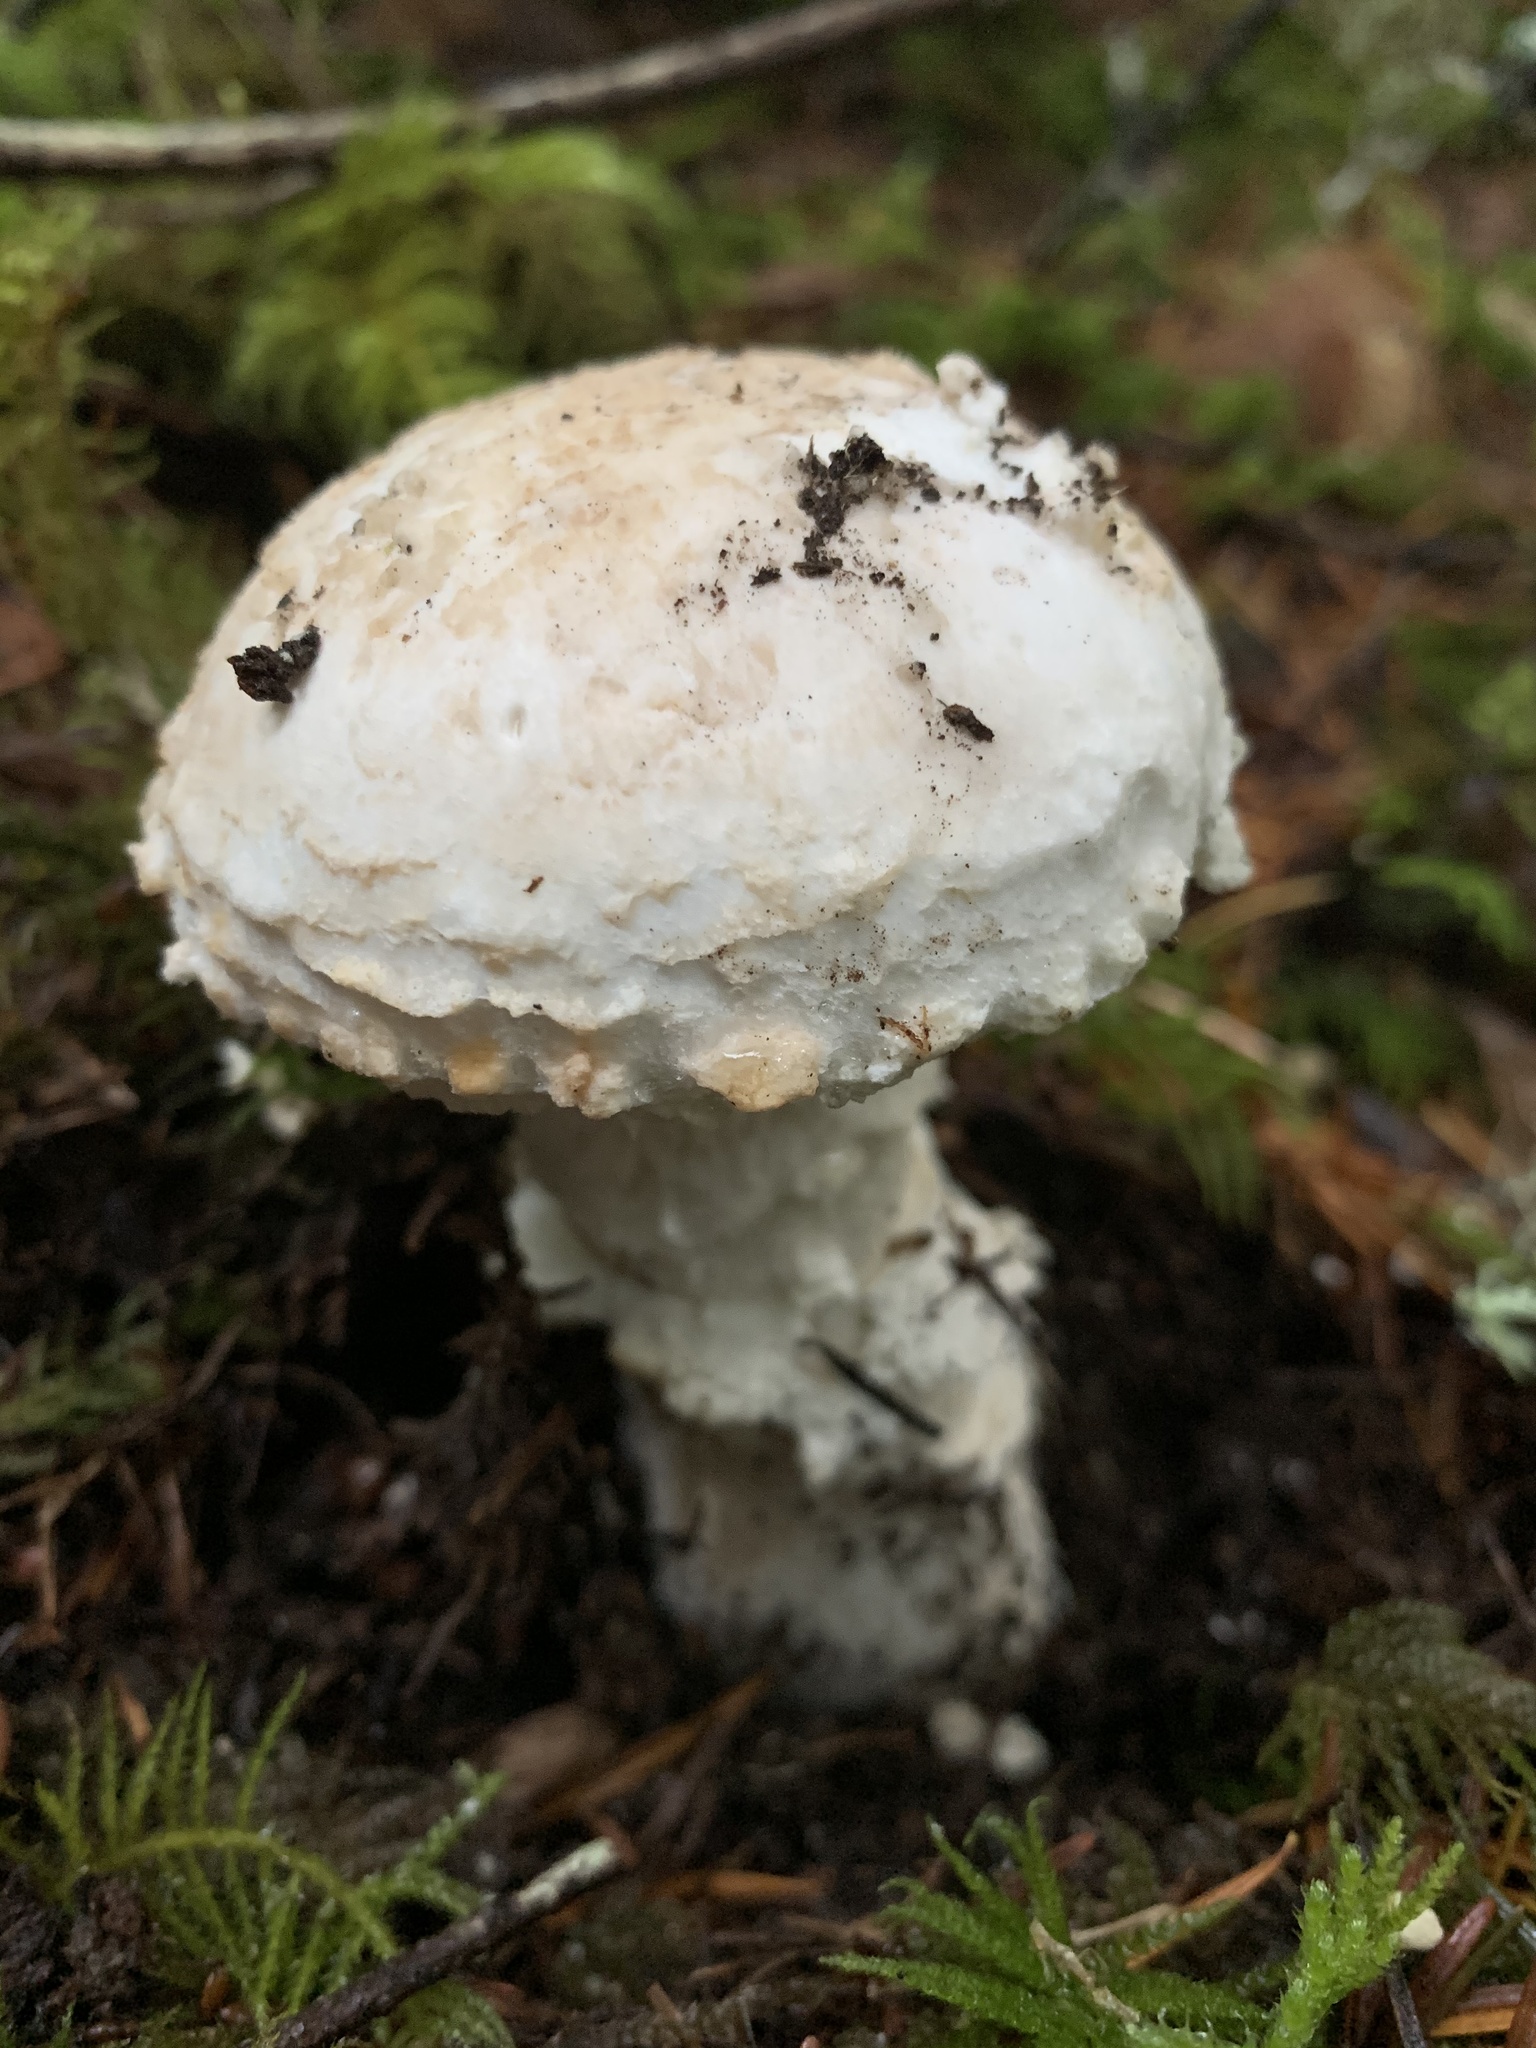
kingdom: Fungi
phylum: Basidiomycota
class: Agaricomycetes
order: Agaricales
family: Amanitaceae
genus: Amanita
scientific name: Amanita smithiana
